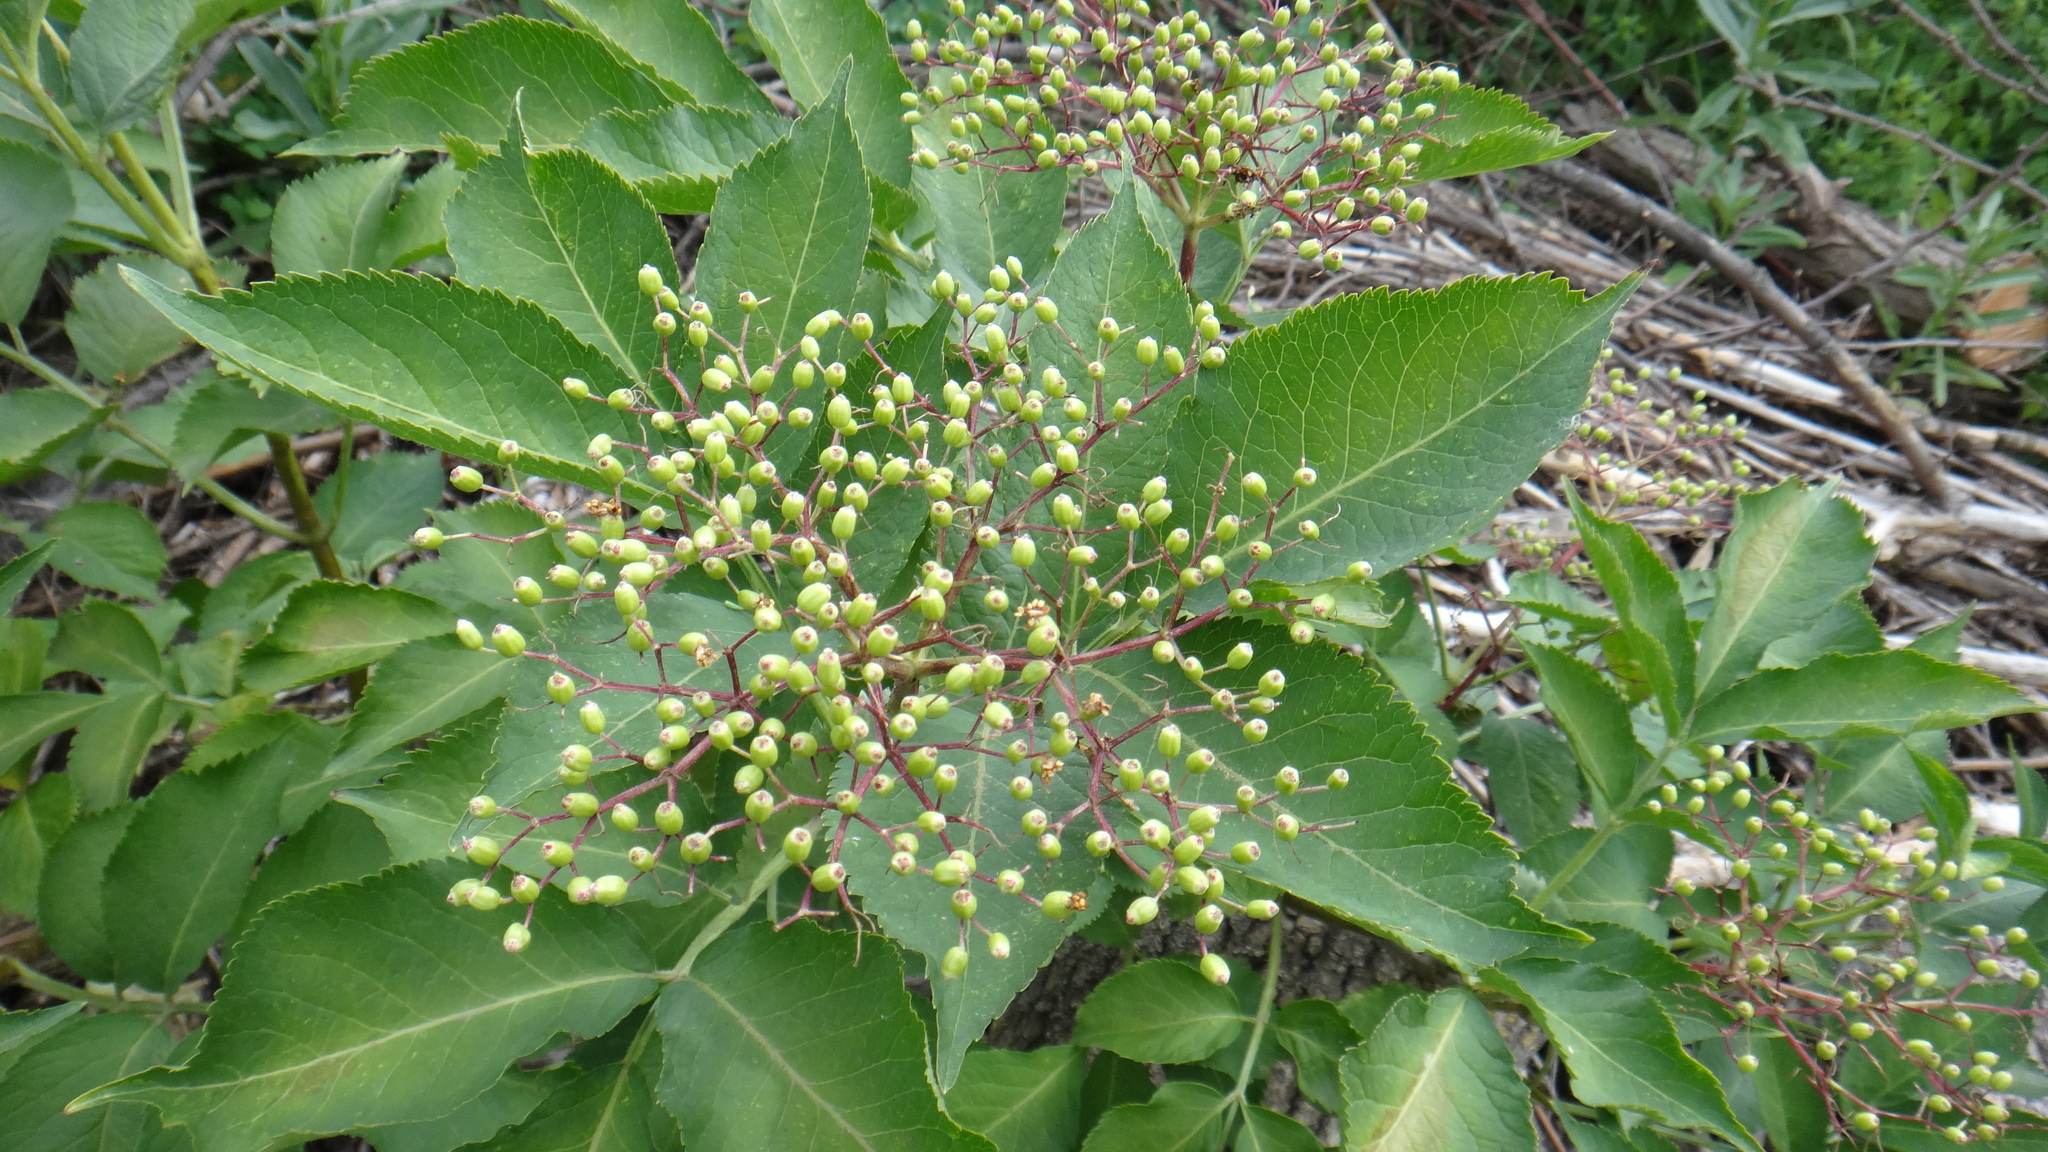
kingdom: Plantae
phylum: Tracheophyta
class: Magnoliopsida
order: Dipsacales
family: Viburnaceae
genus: Sambucus
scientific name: Sambucus nigra
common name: Elder
